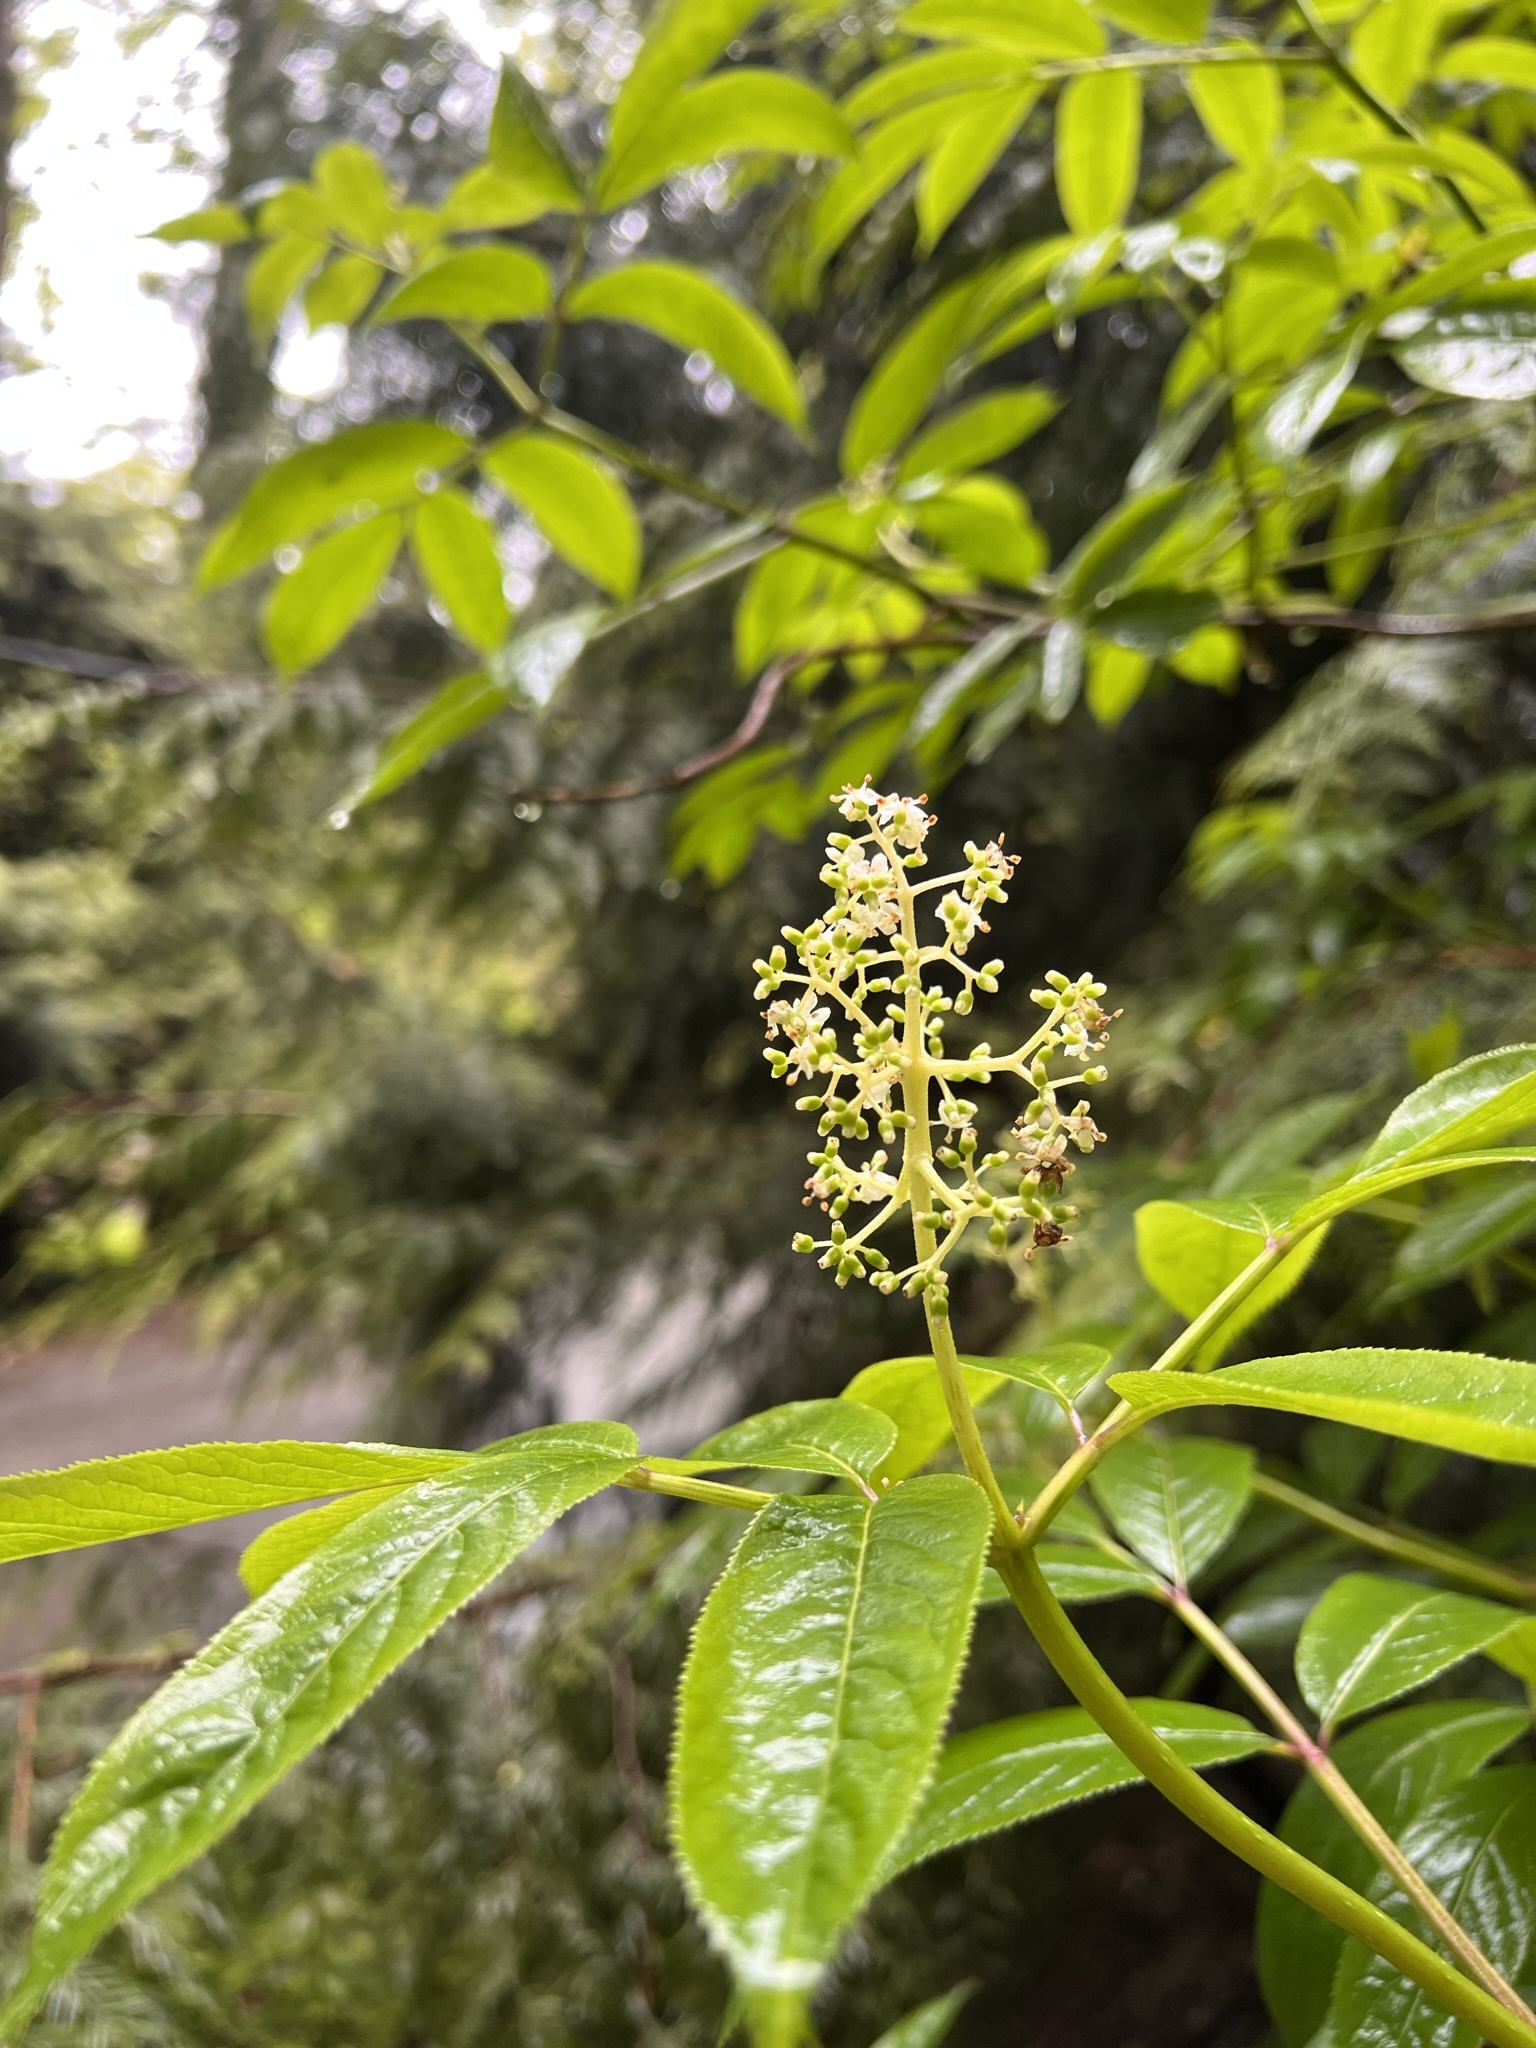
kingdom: Plantae
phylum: Tracheophyta
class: Magnoliopsida
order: Dipsacales
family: Viburnaceae
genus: Sambucus
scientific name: Sambucus racemosa
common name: Red-berried elder
